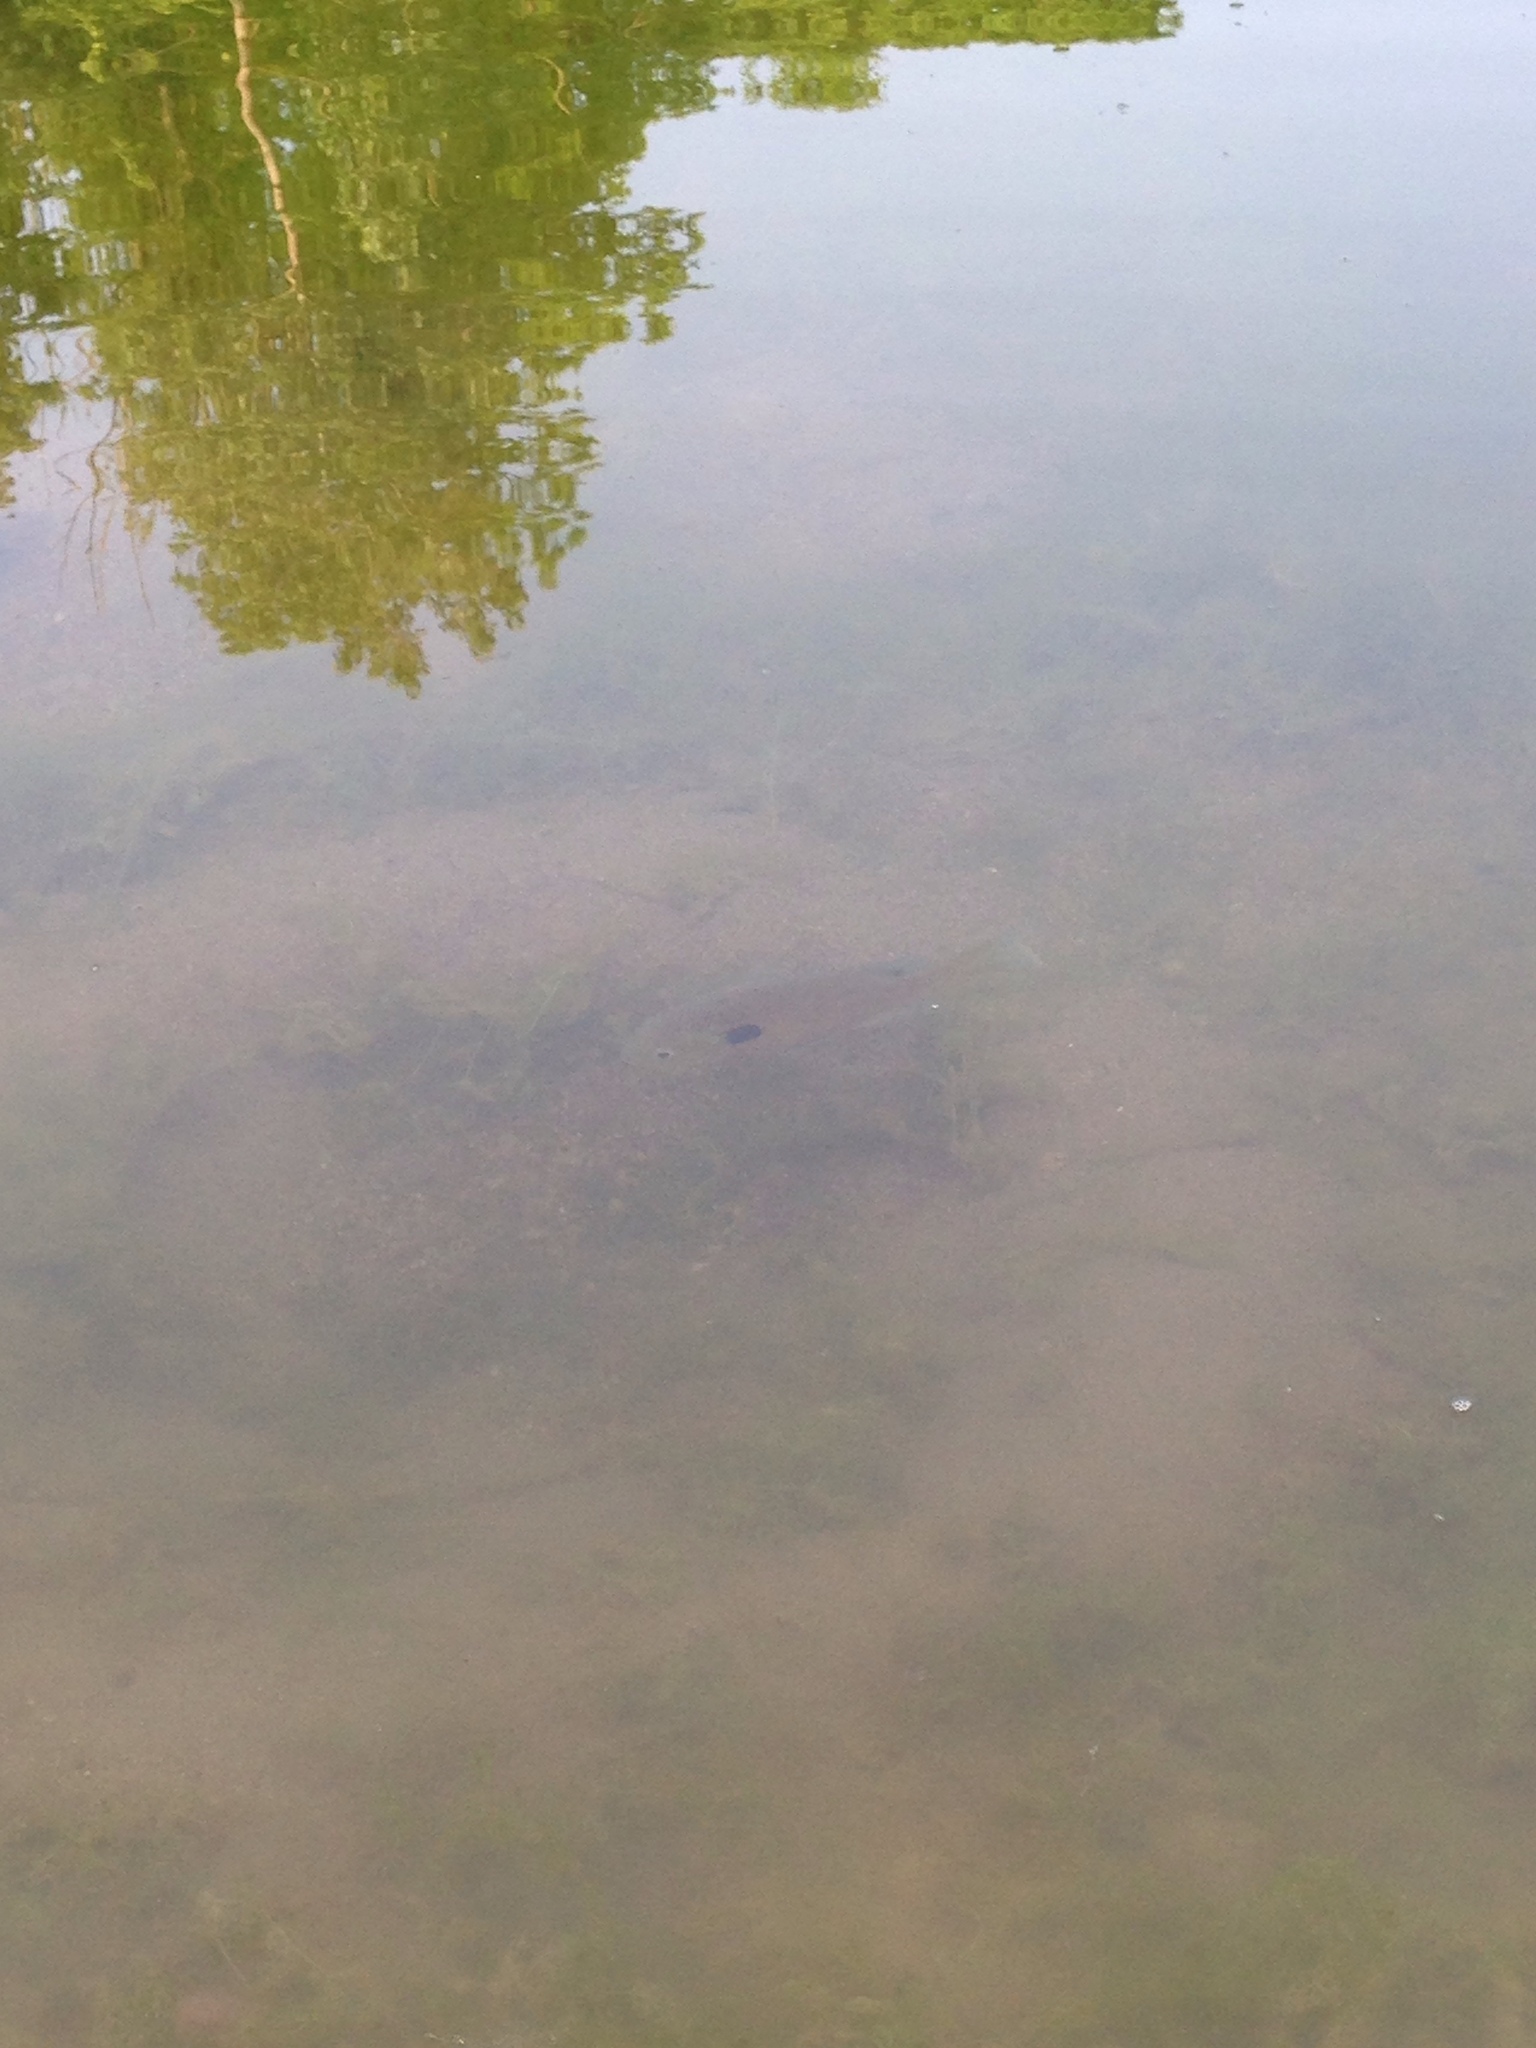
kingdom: Animalia
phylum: Chordata
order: Perciformes
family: Centrarchidae
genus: Lepomis
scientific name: Lepomis macrochirus
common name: Bluegill
